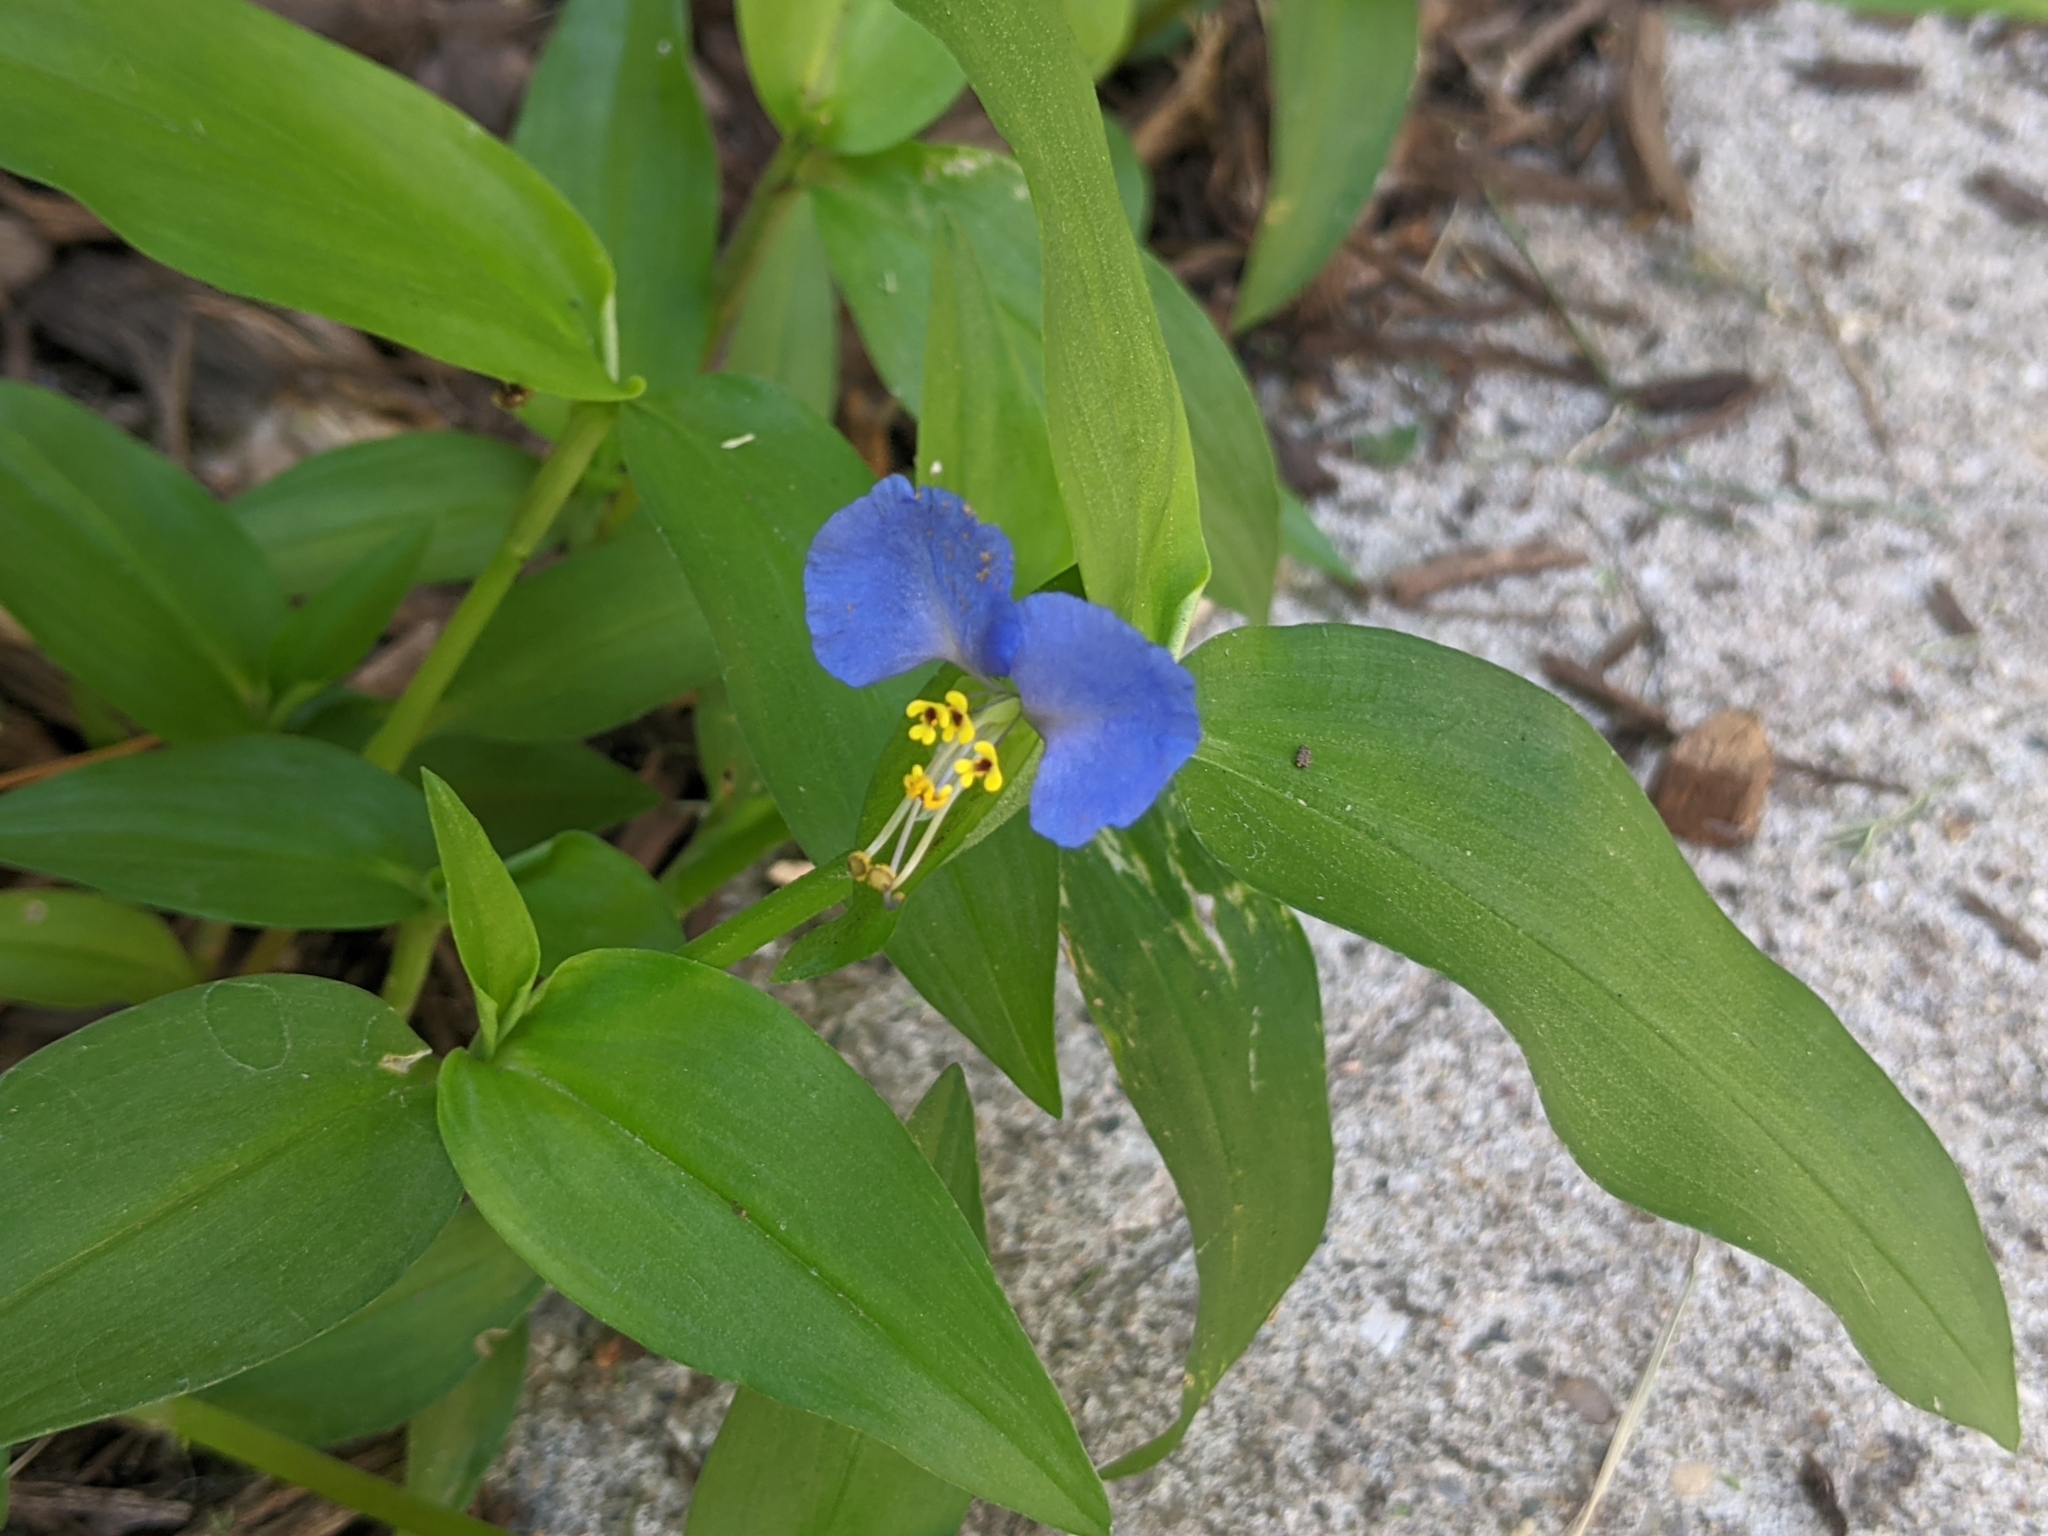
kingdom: Plantae
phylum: Tracheophyta
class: Liliopsida
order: Commelinales
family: Commelinaceae
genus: Commelina
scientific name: Commelina communis
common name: Asiatic dayflower
